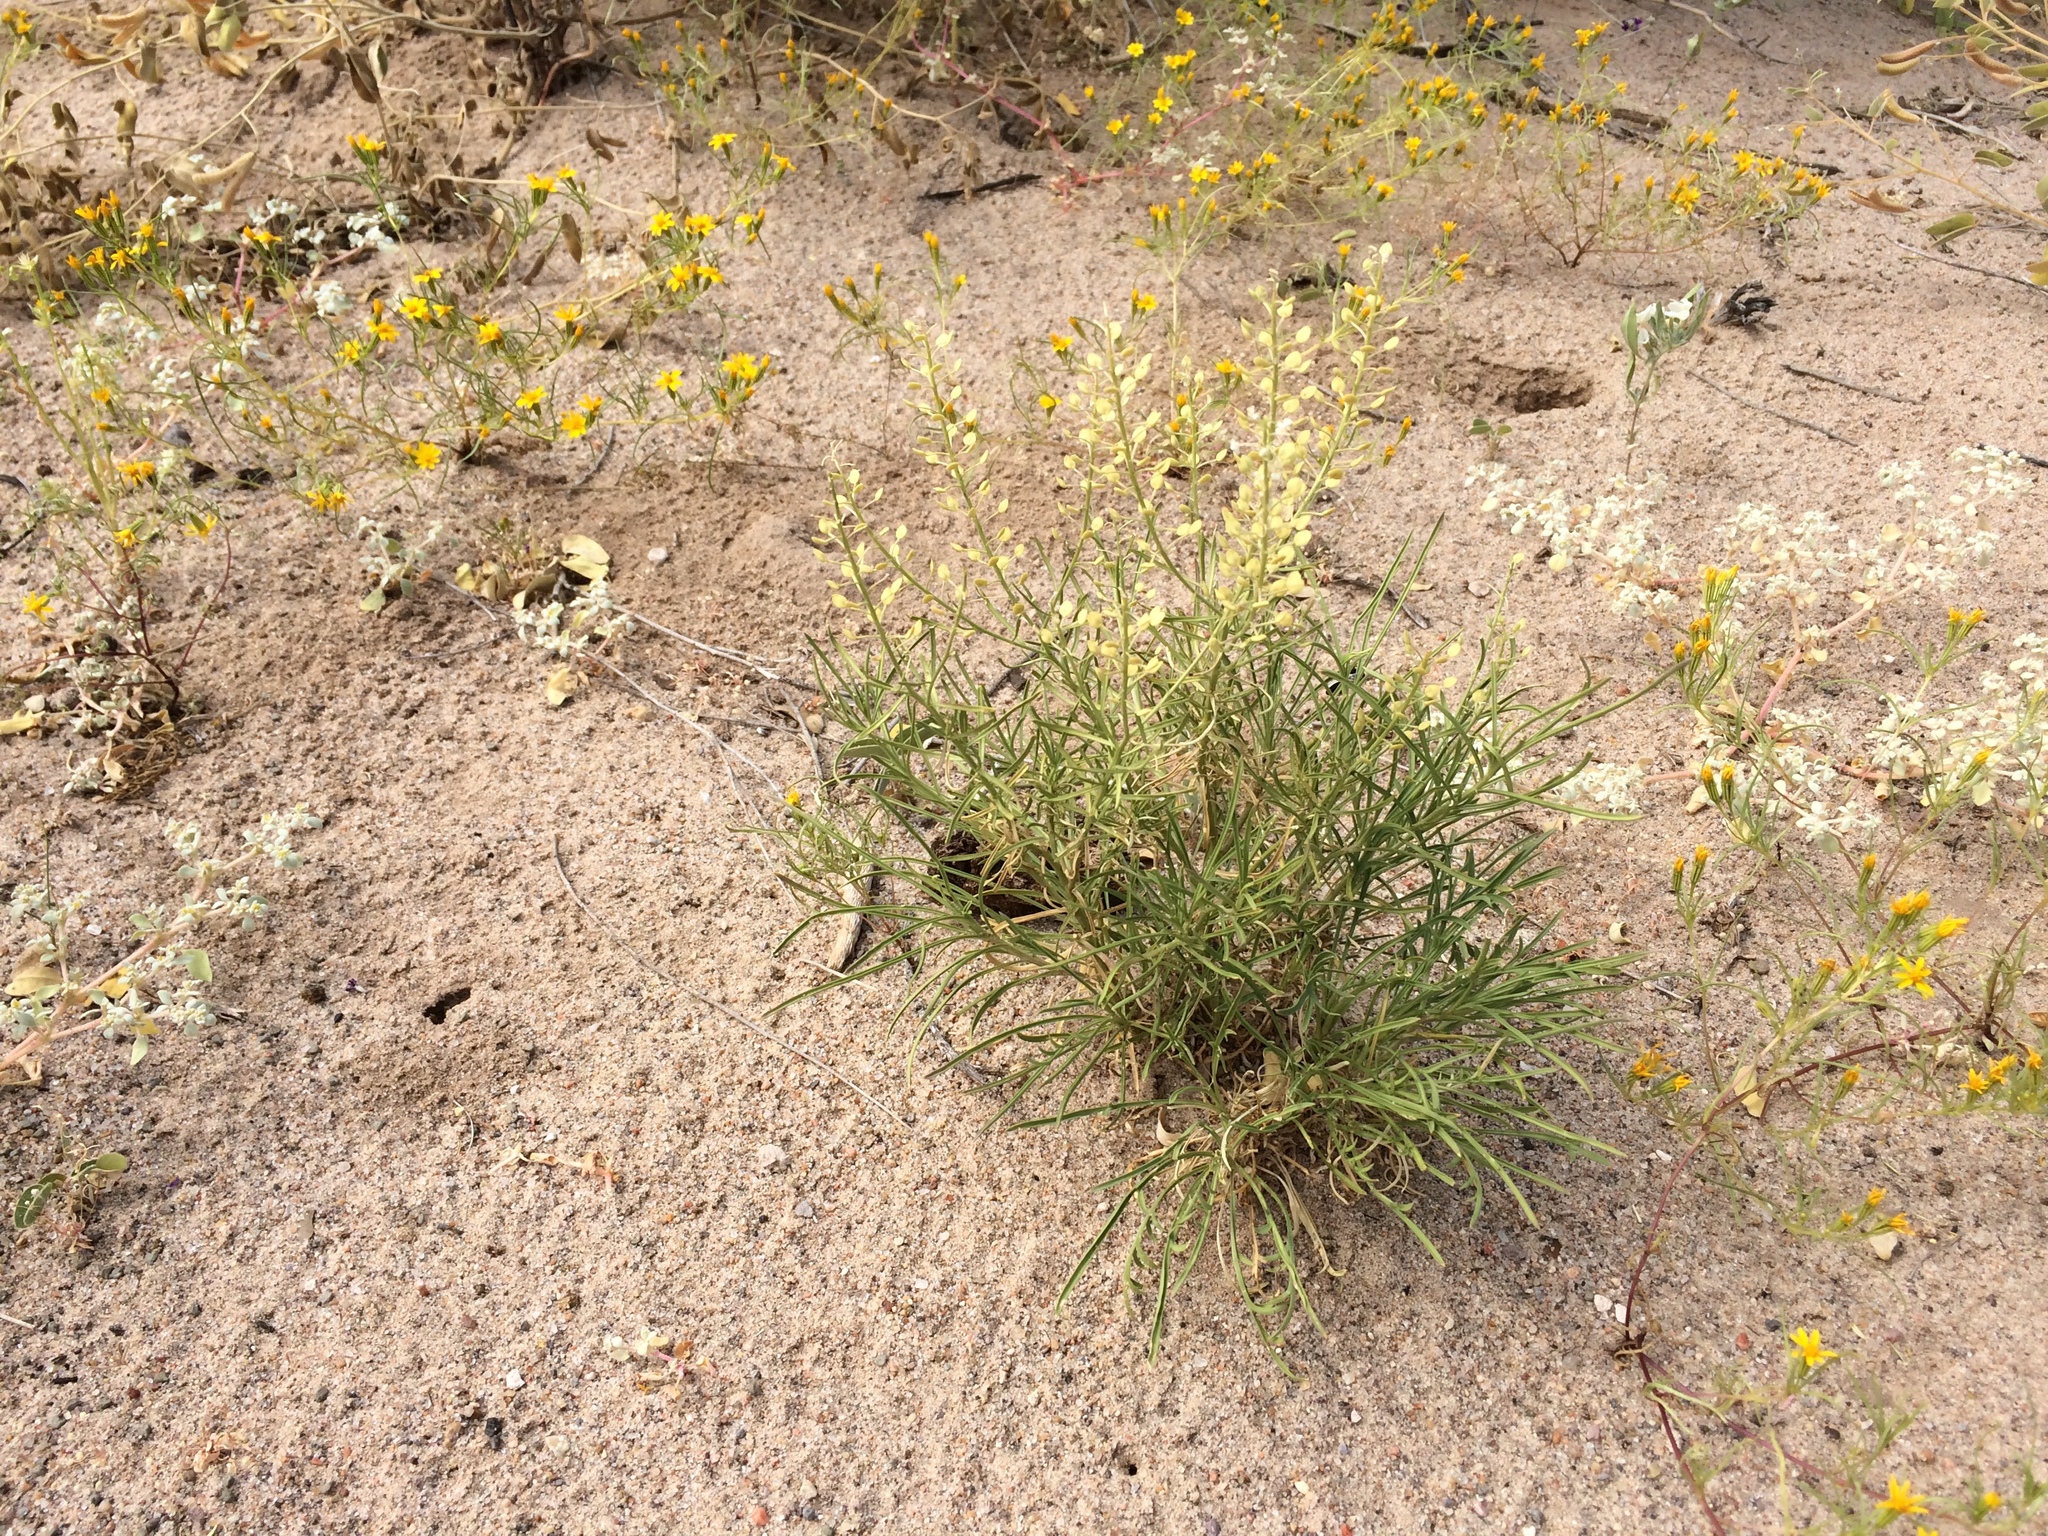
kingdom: Plantae
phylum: Tracheophyta
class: Magnoliopsida
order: Brassicales
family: Brassicaceae
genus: Lepidium
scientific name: Lepidium alyssoides
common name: Mesa pepperweed
